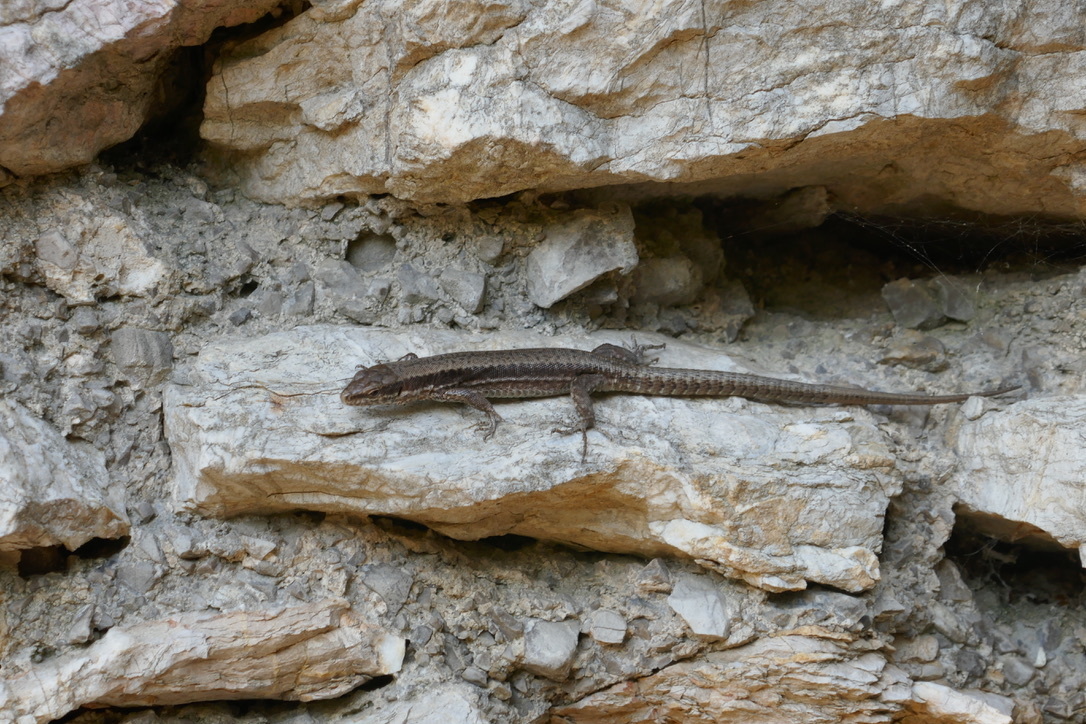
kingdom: Animalia
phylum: Chordata
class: Squamata
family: Lacertidae
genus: Podarcis
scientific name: Podarcis muralis
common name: Common wall lizard
